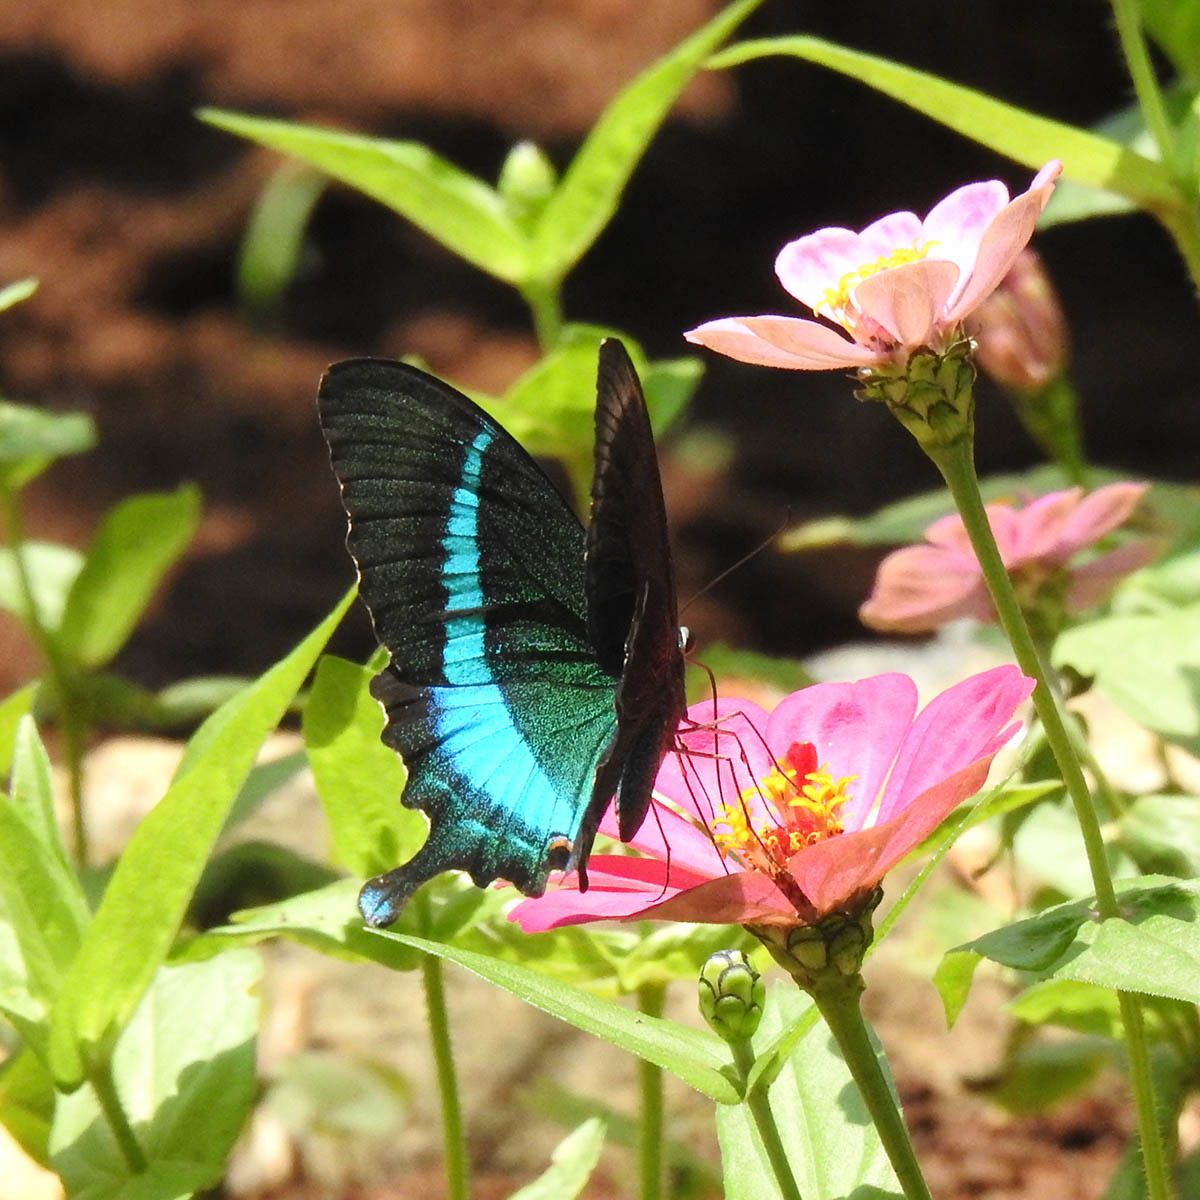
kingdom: Animalia
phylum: Arthropoda
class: Insecta
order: Lepidoptera
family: Papilionidae
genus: Papilio
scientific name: Papilio crino
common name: Common banded peacock
